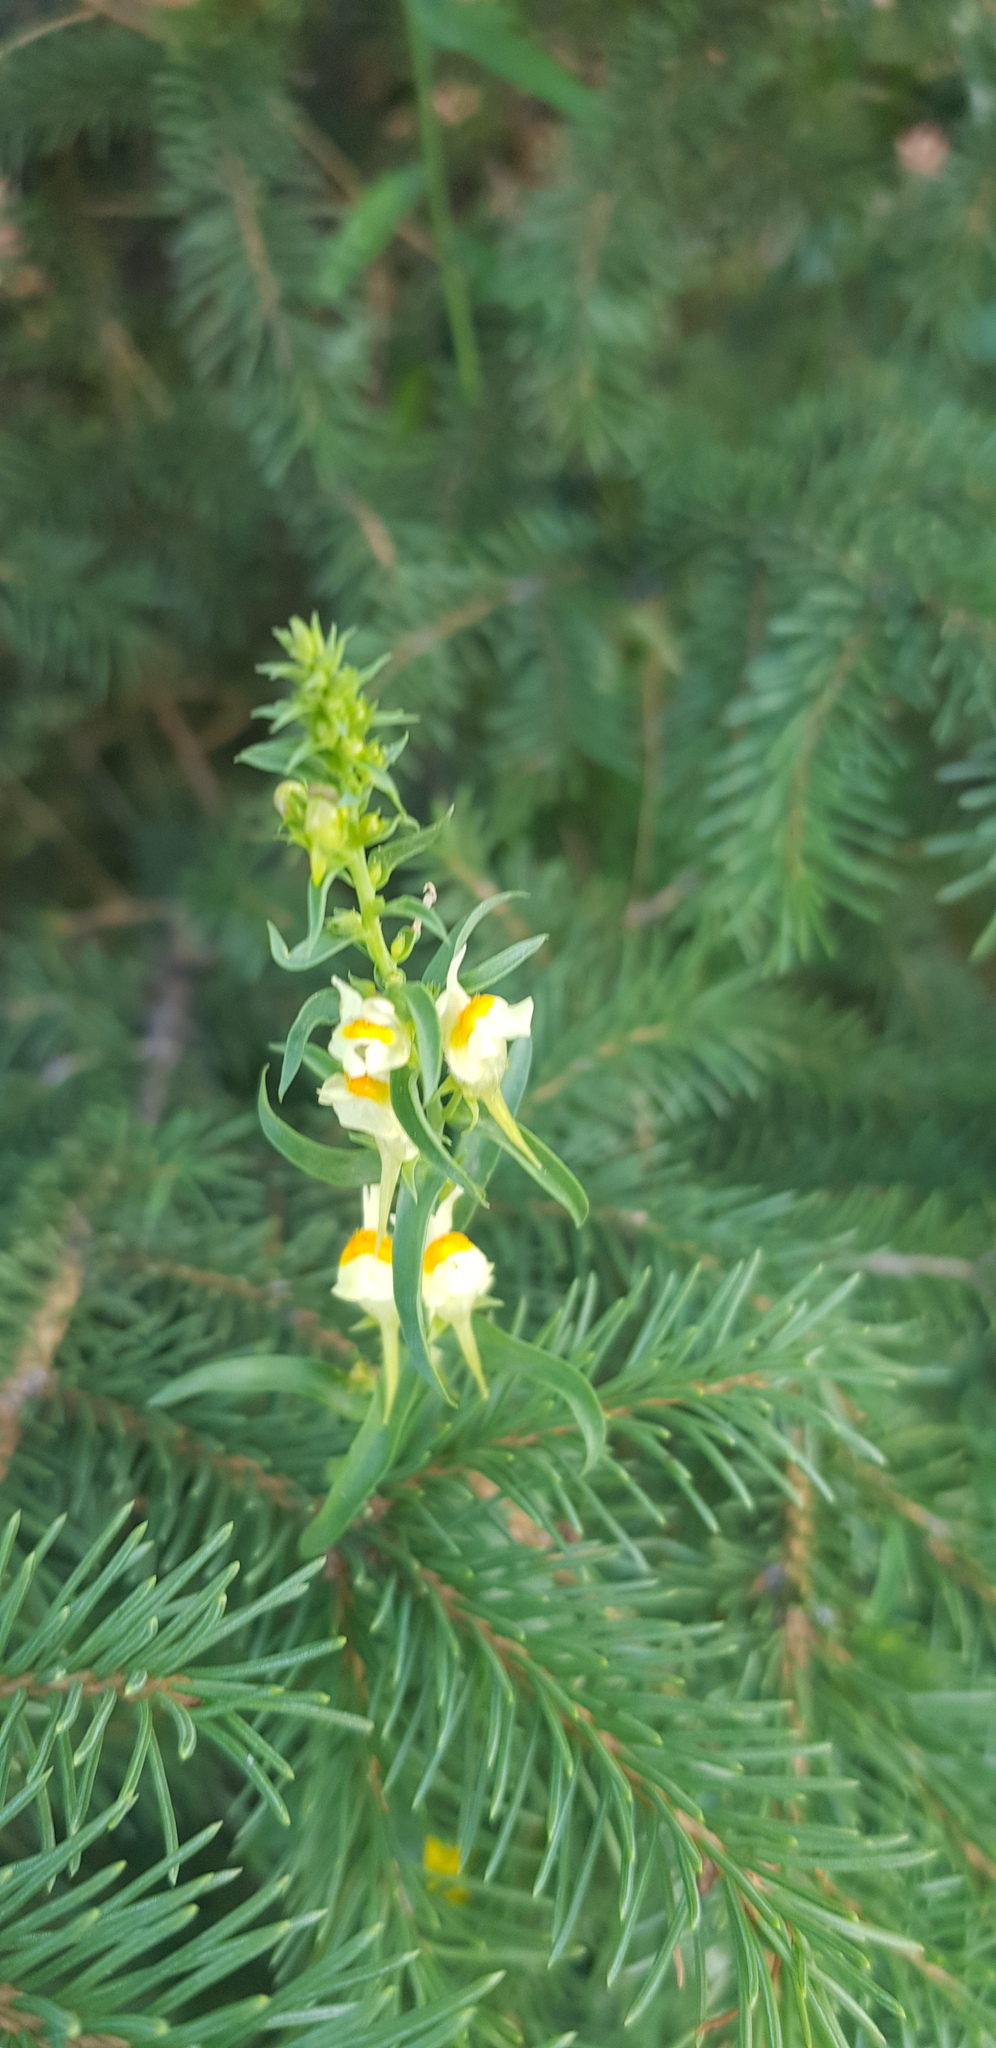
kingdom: Plantae
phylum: Tracheophyta
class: Magnoliopsida
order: Lamiales
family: Plantaginaceae
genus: Linaria
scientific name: Linaria buriatica
